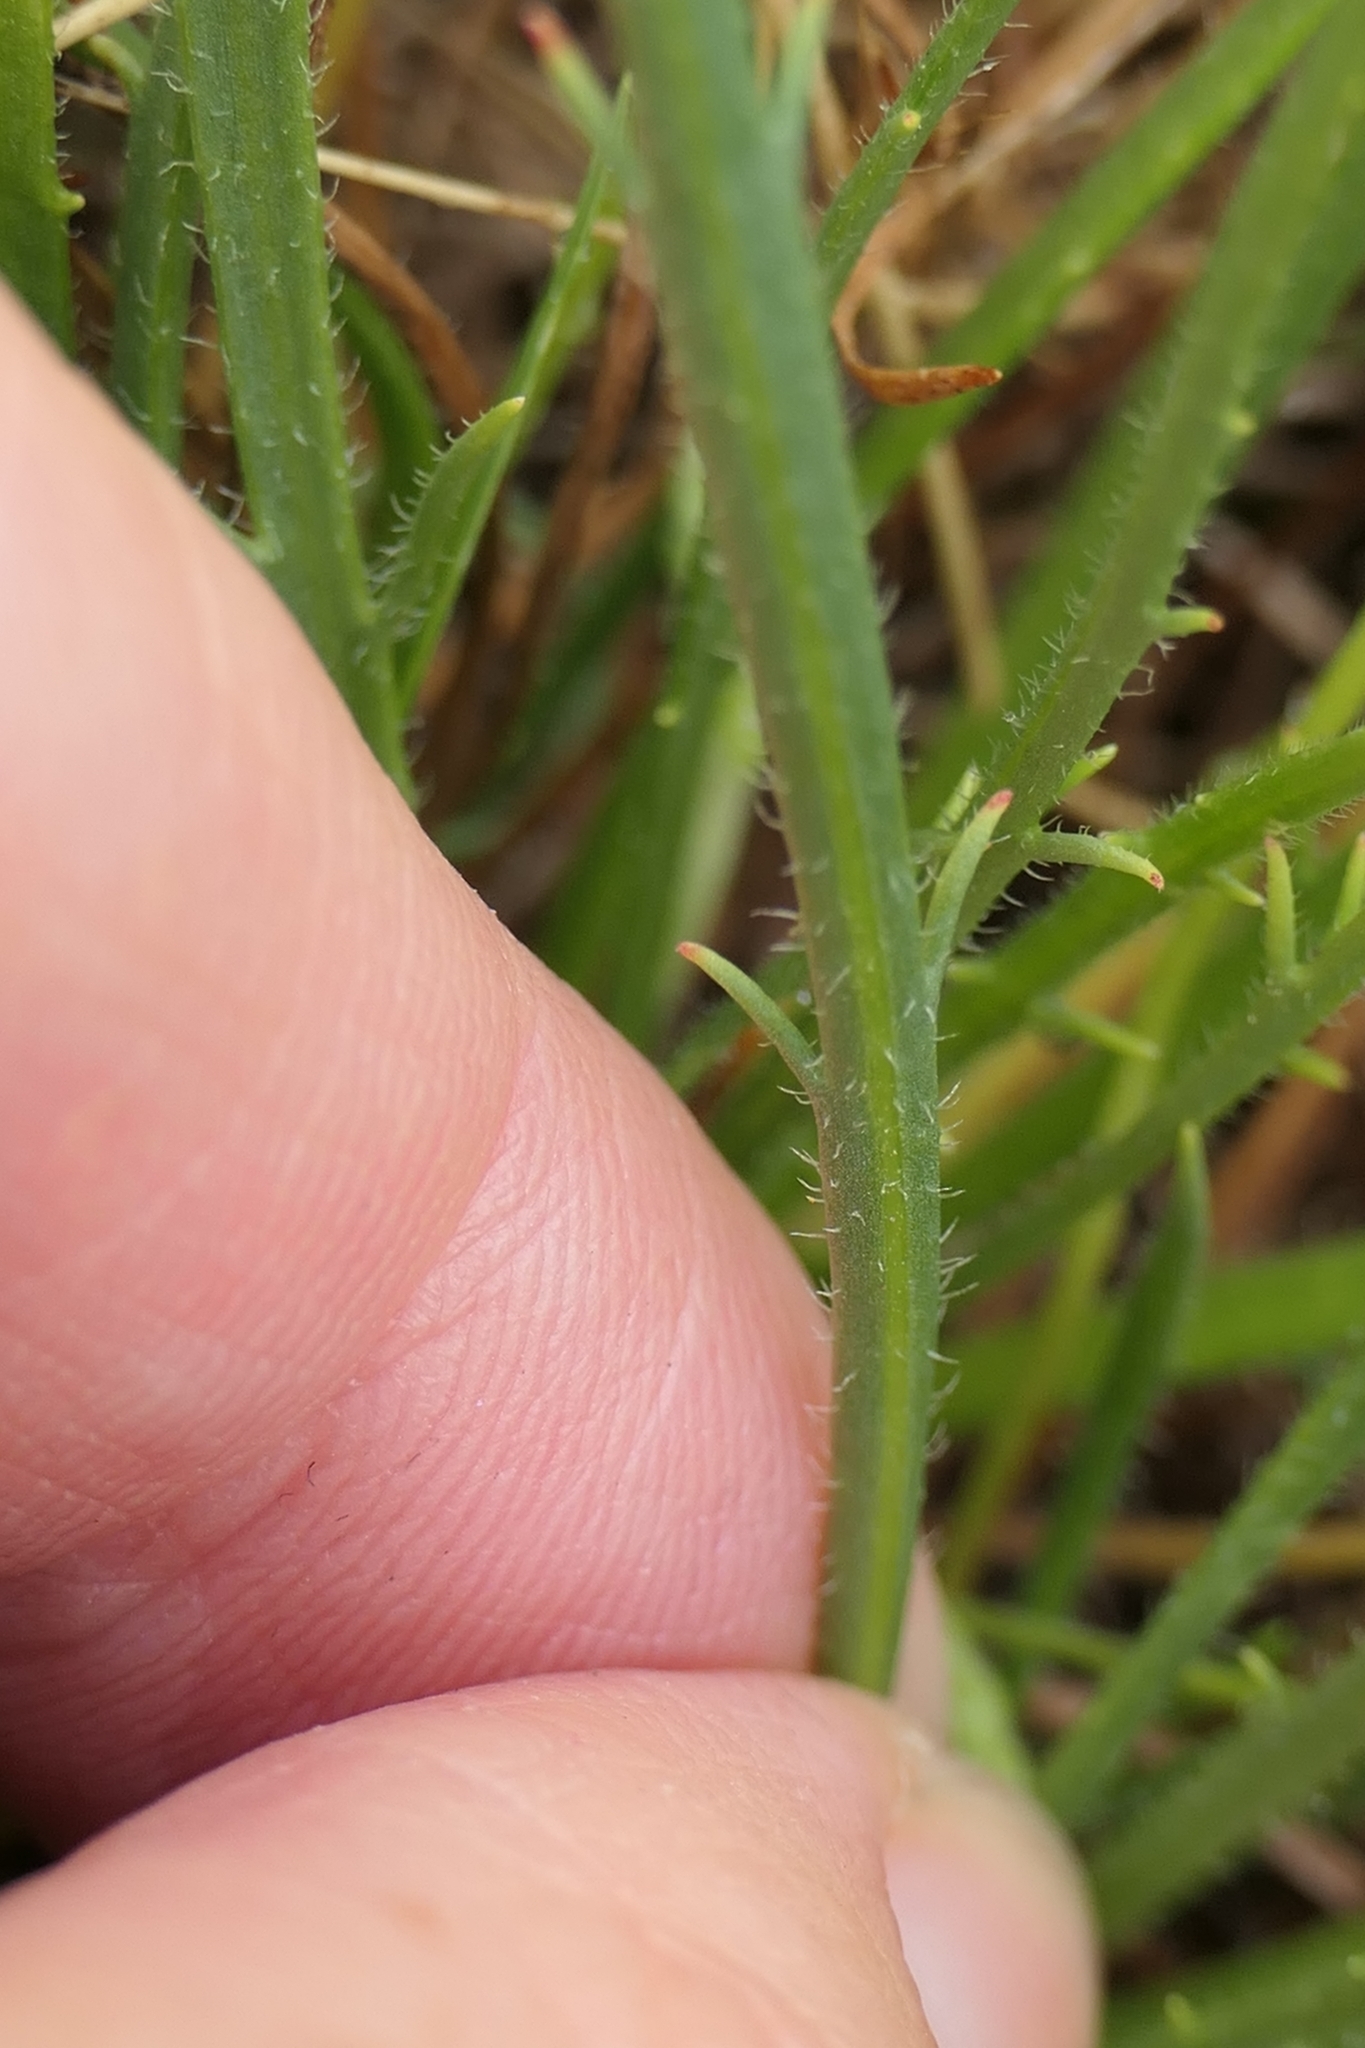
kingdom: Plantae
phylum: Tracheophyta
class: Magnoliopsida
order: Lamiales
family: Plantaginaceae
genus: Plantago
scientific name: Plantago coronopus
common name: Buck's-horn plantain
